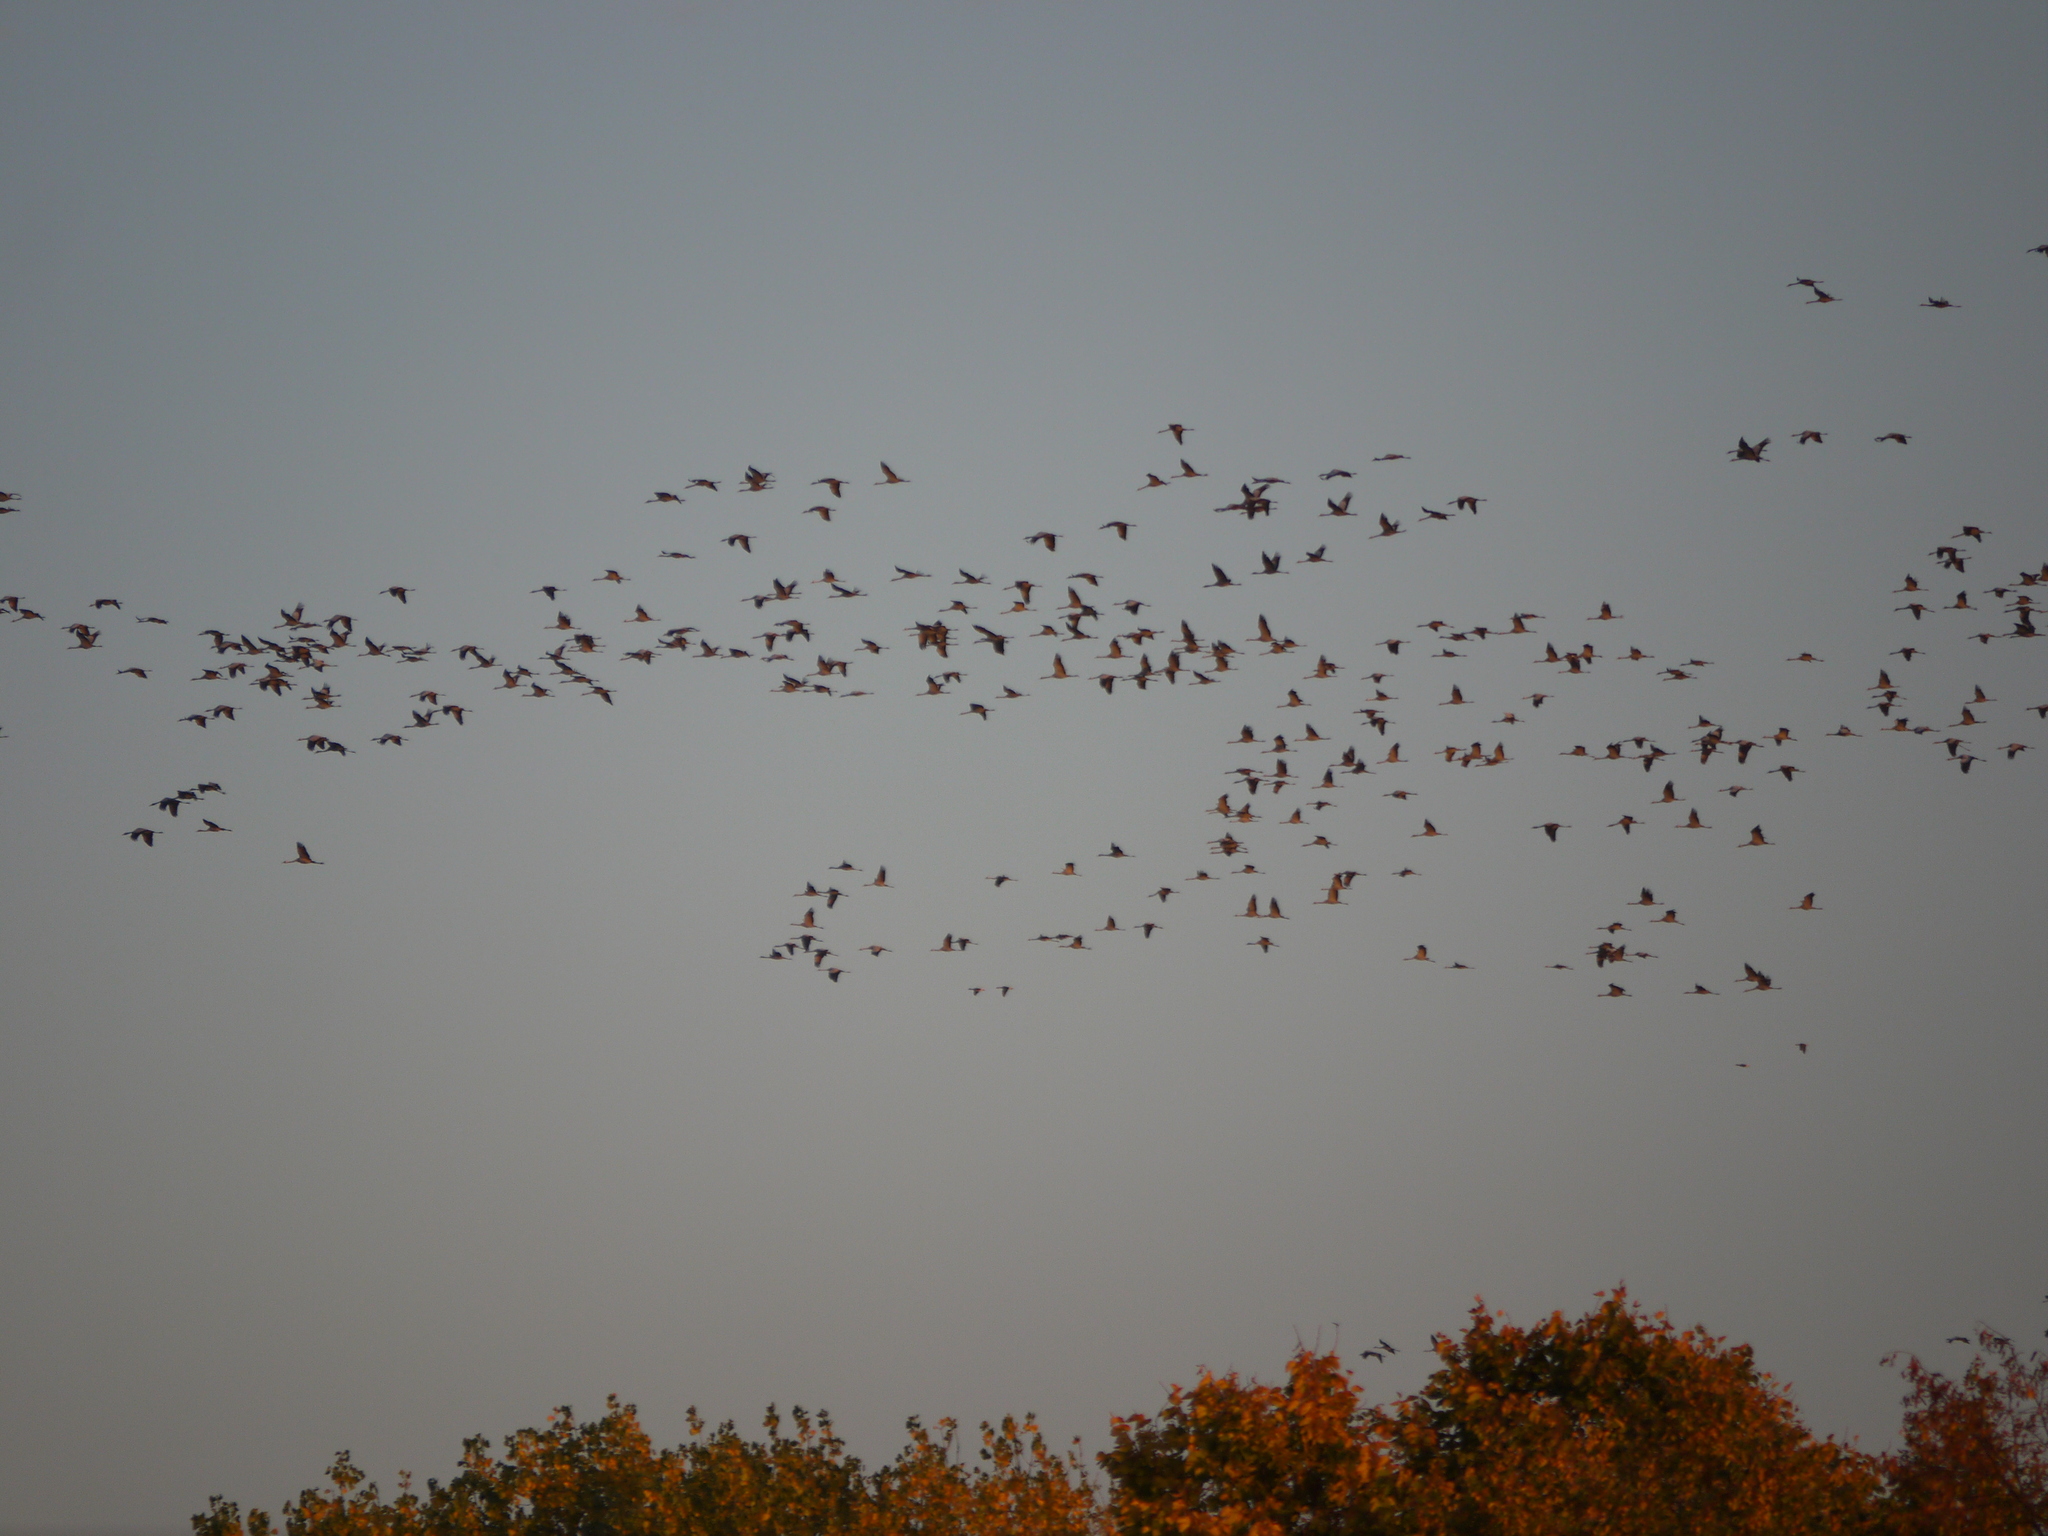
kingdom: Animalia
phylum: Chordata
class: Aves
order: Gruiformes
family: Gruidae
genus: Grus
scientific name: Grus grus
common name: Common crane
